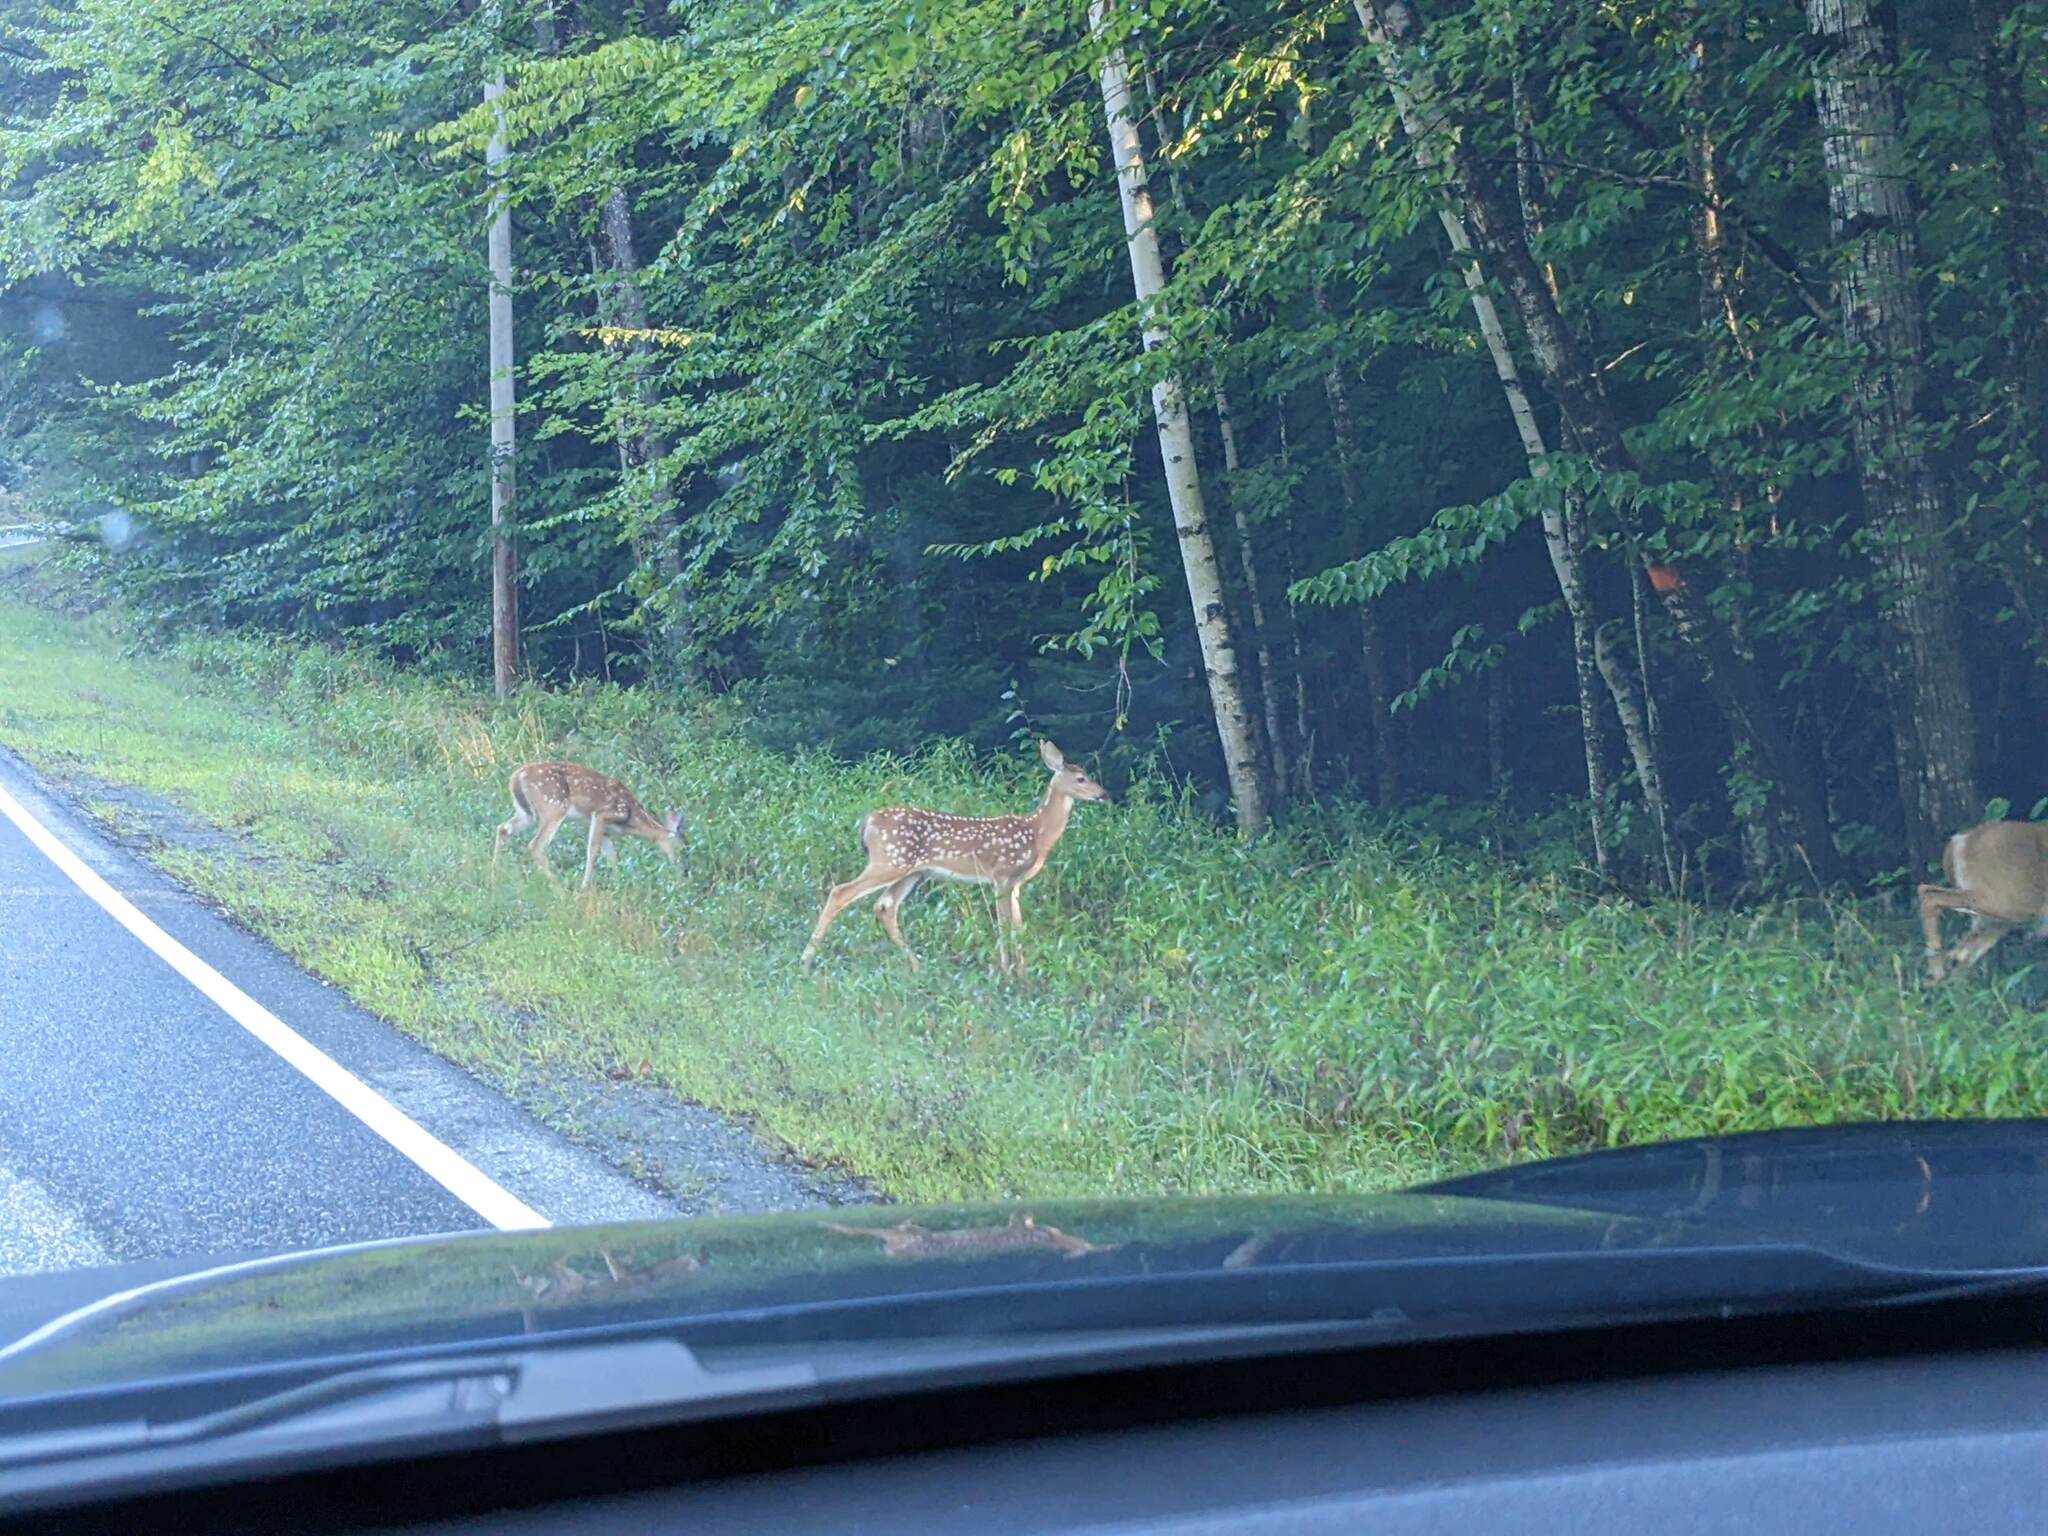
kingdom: Animalia
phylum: Chordata
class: Mammalia
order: Artiodactyla
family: Cervidae
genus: Odocoileus
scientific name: Odocoileus virginianus
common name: White-tailed deer
